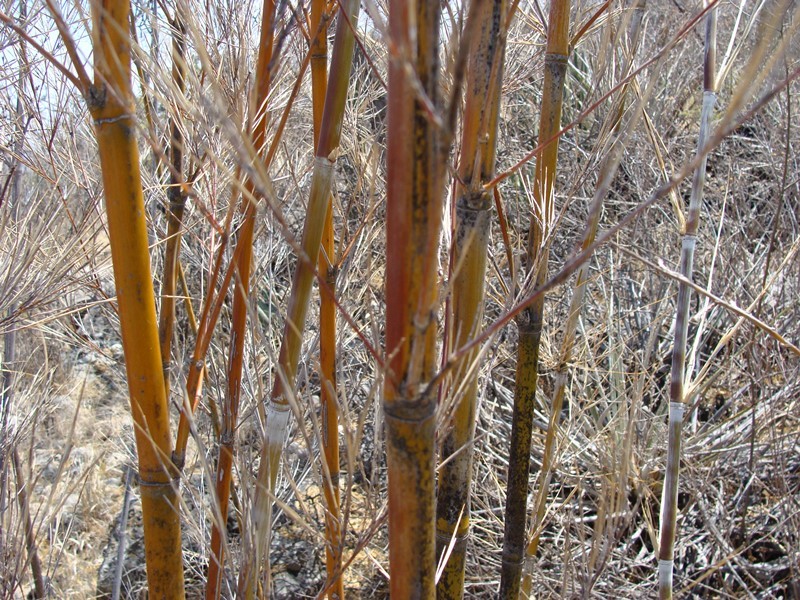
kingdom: Plantae
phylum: Tracheophyta
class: Liliopsida
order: Poales
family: Poaceae
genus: Otatea
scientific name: Otatea acuminata
